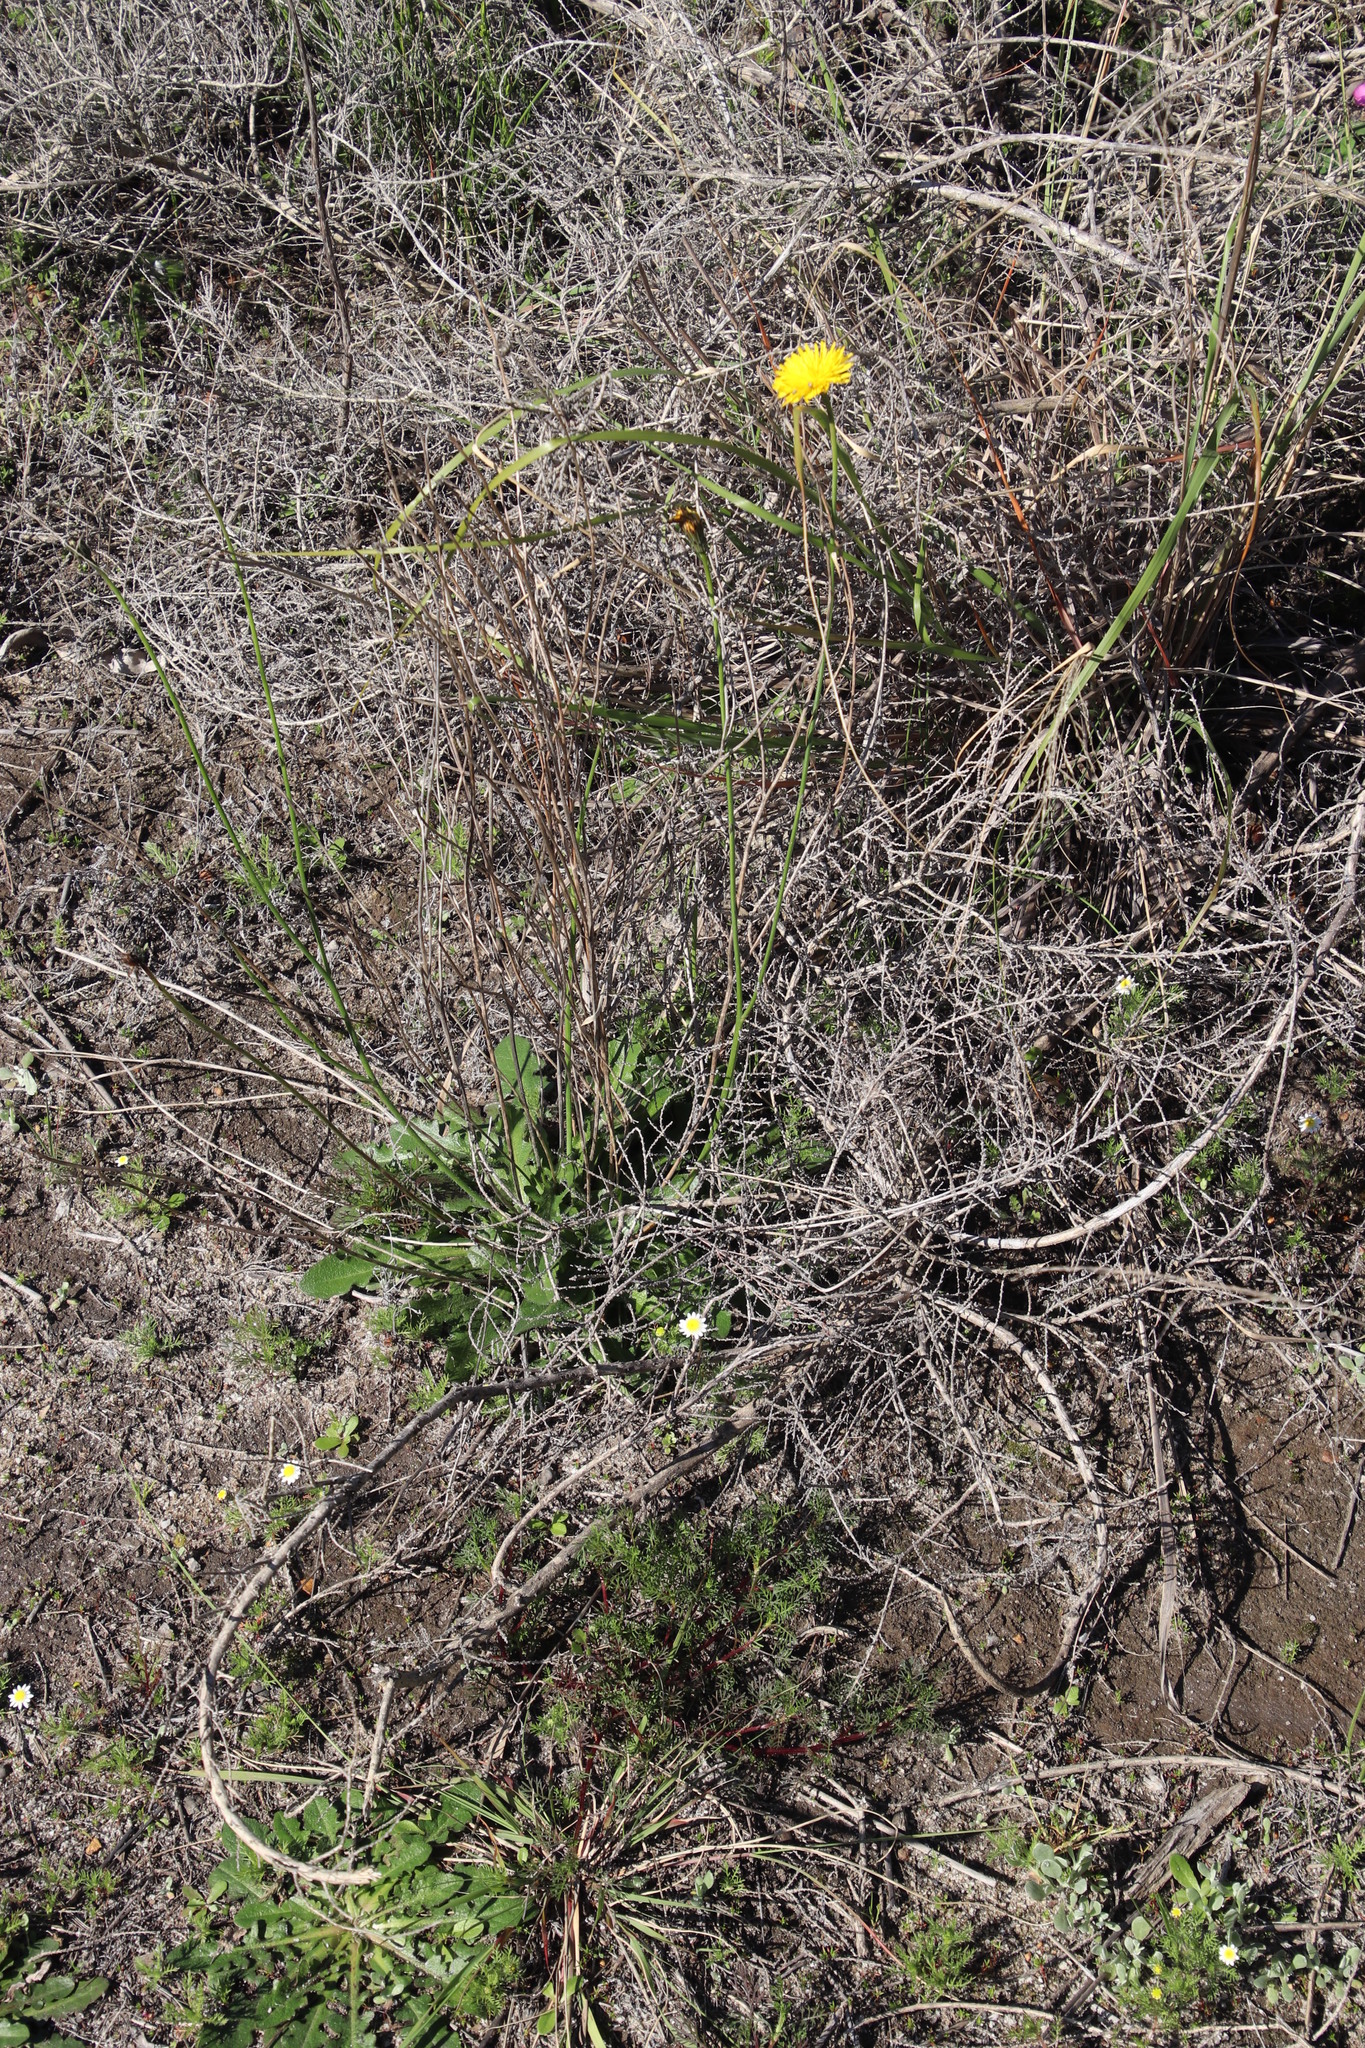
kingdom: Plantae
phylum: Tracheophyta
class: Magnoliopsida
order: Asterales
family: Asteraceae
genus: Hypochaeris
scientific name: Hypochaeris radicata
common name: Flatweed
